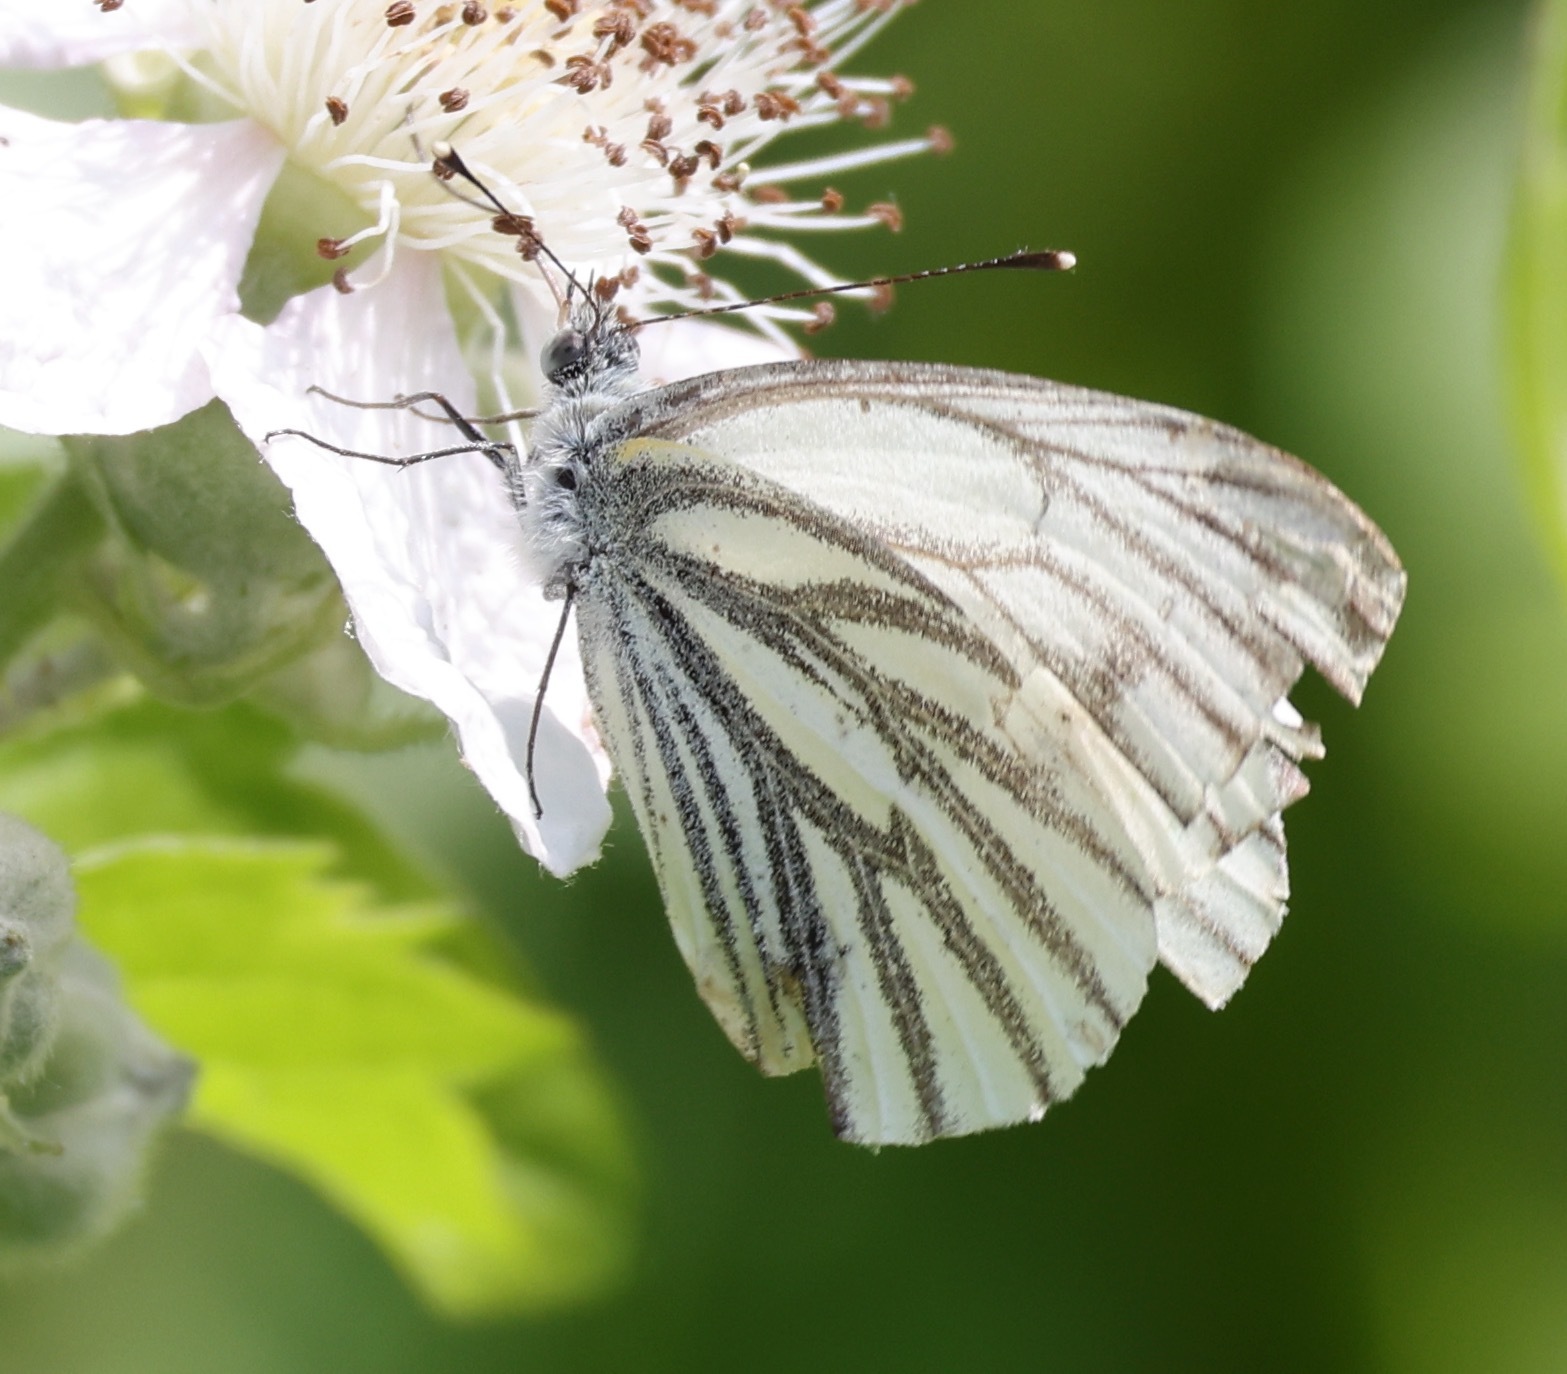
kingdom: Animalia
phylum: Arthropoda
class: Insecta
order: Lepidoptera
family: Pieridae
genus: Pieris
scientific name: Pieris napi
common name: Green-veined white
